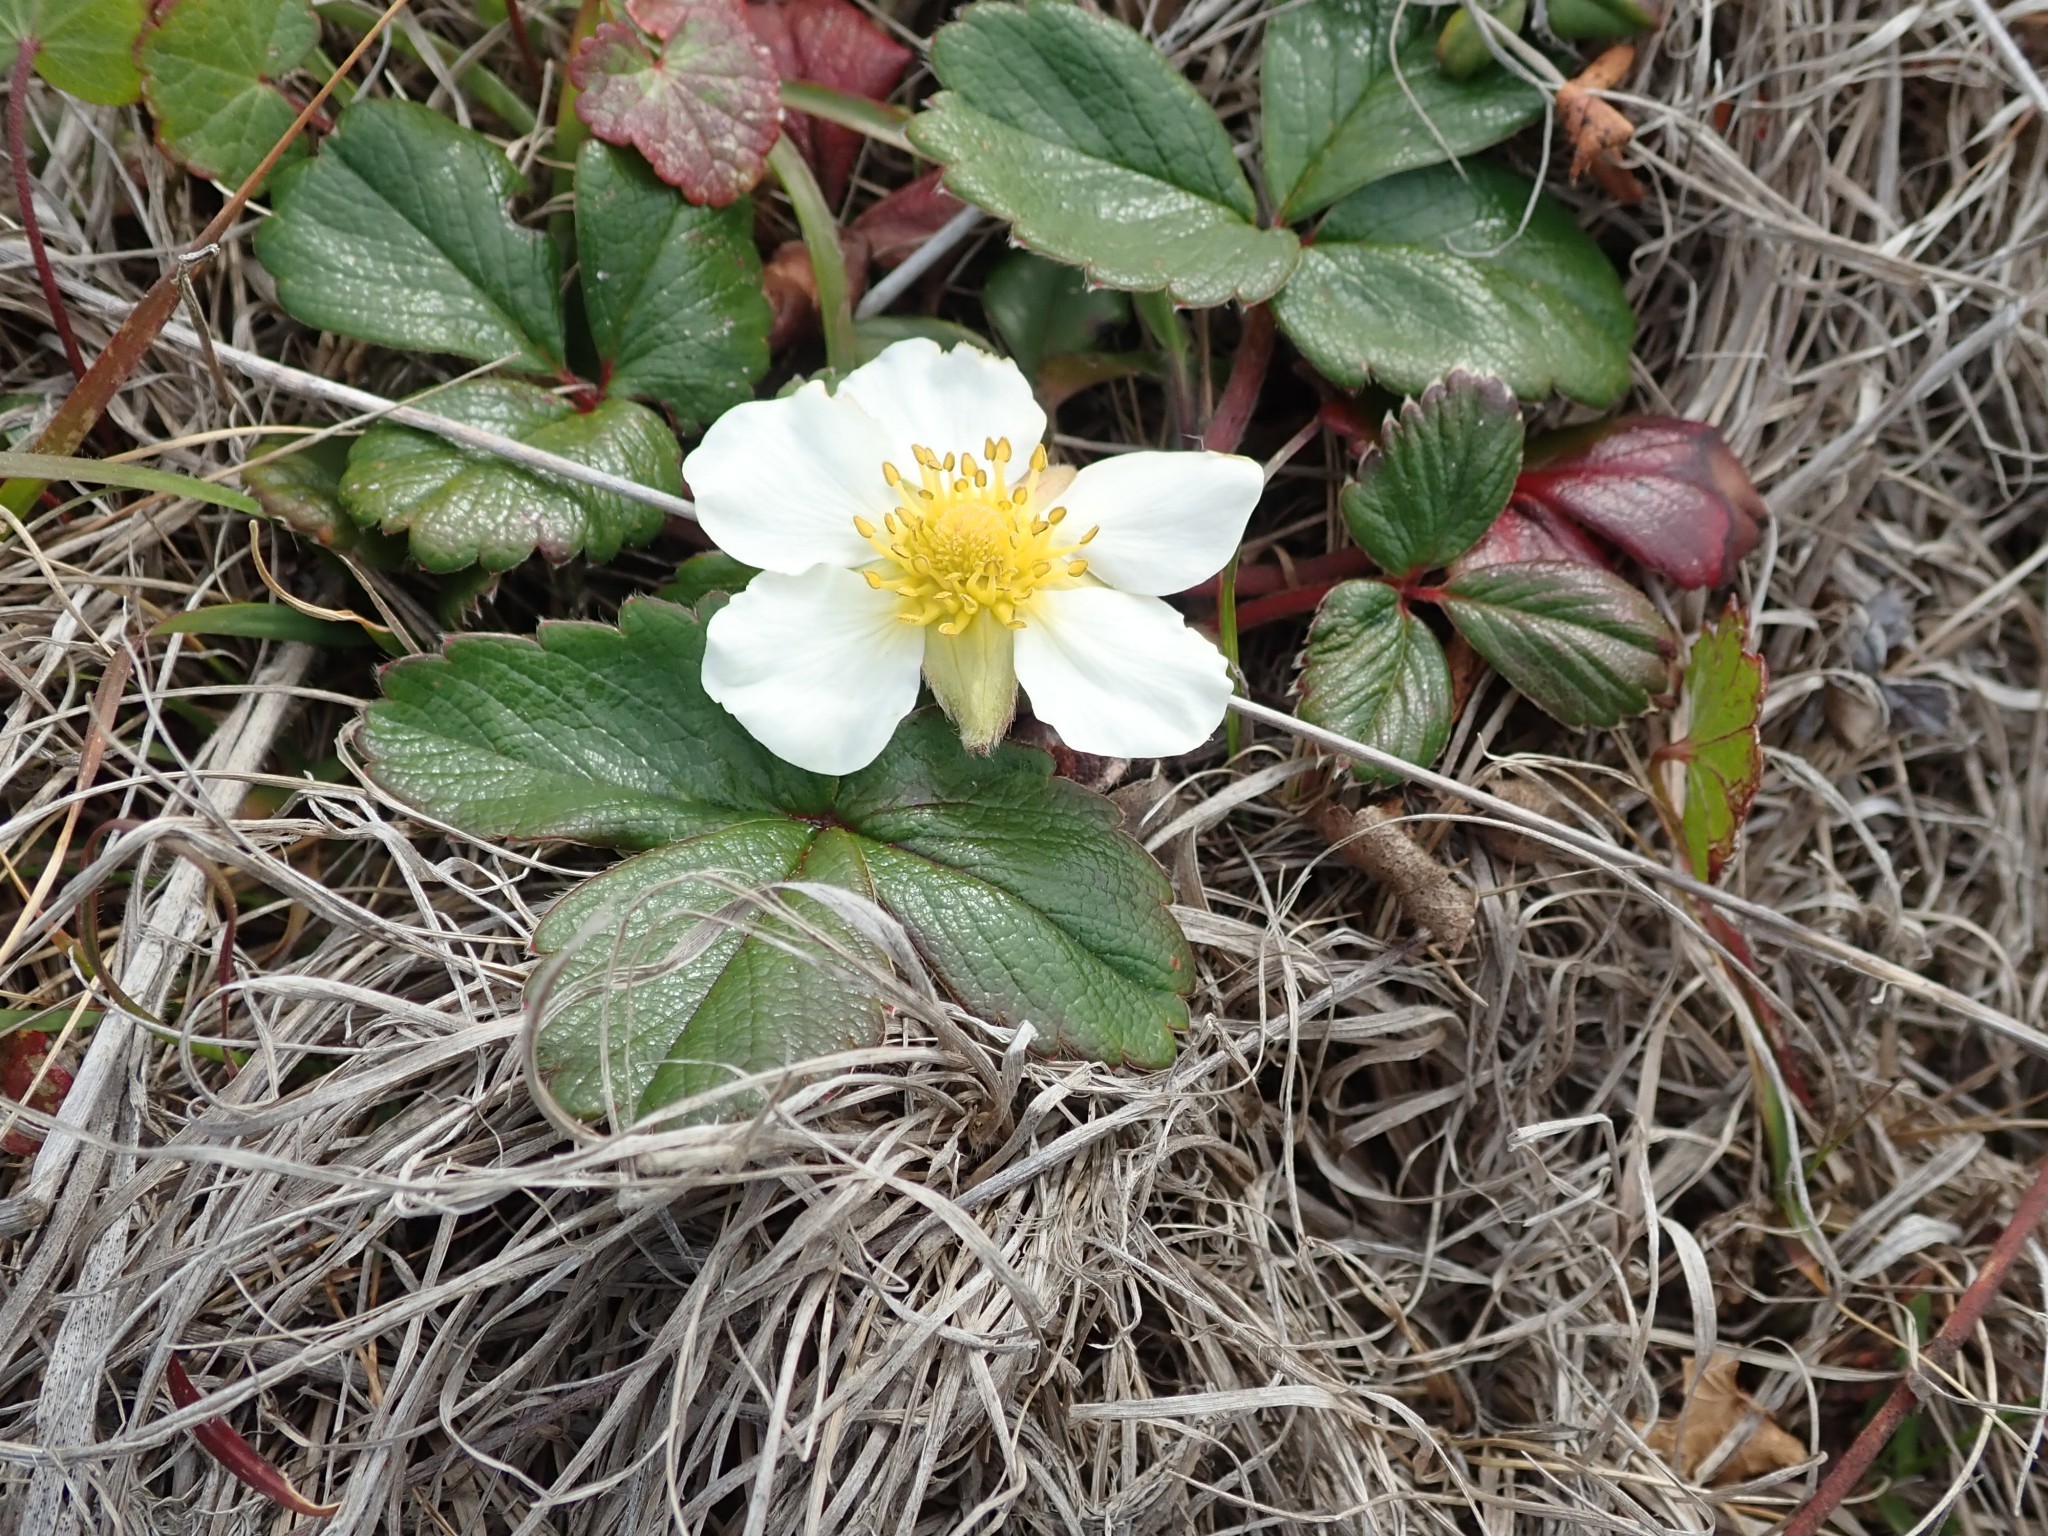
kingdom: Plantae
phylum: Tracheophyta
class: Magnoliopsida
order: Rosales
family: Rosaceae
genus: Fragaria
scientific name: Fragaria chiloensis
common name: Beach strawberry
